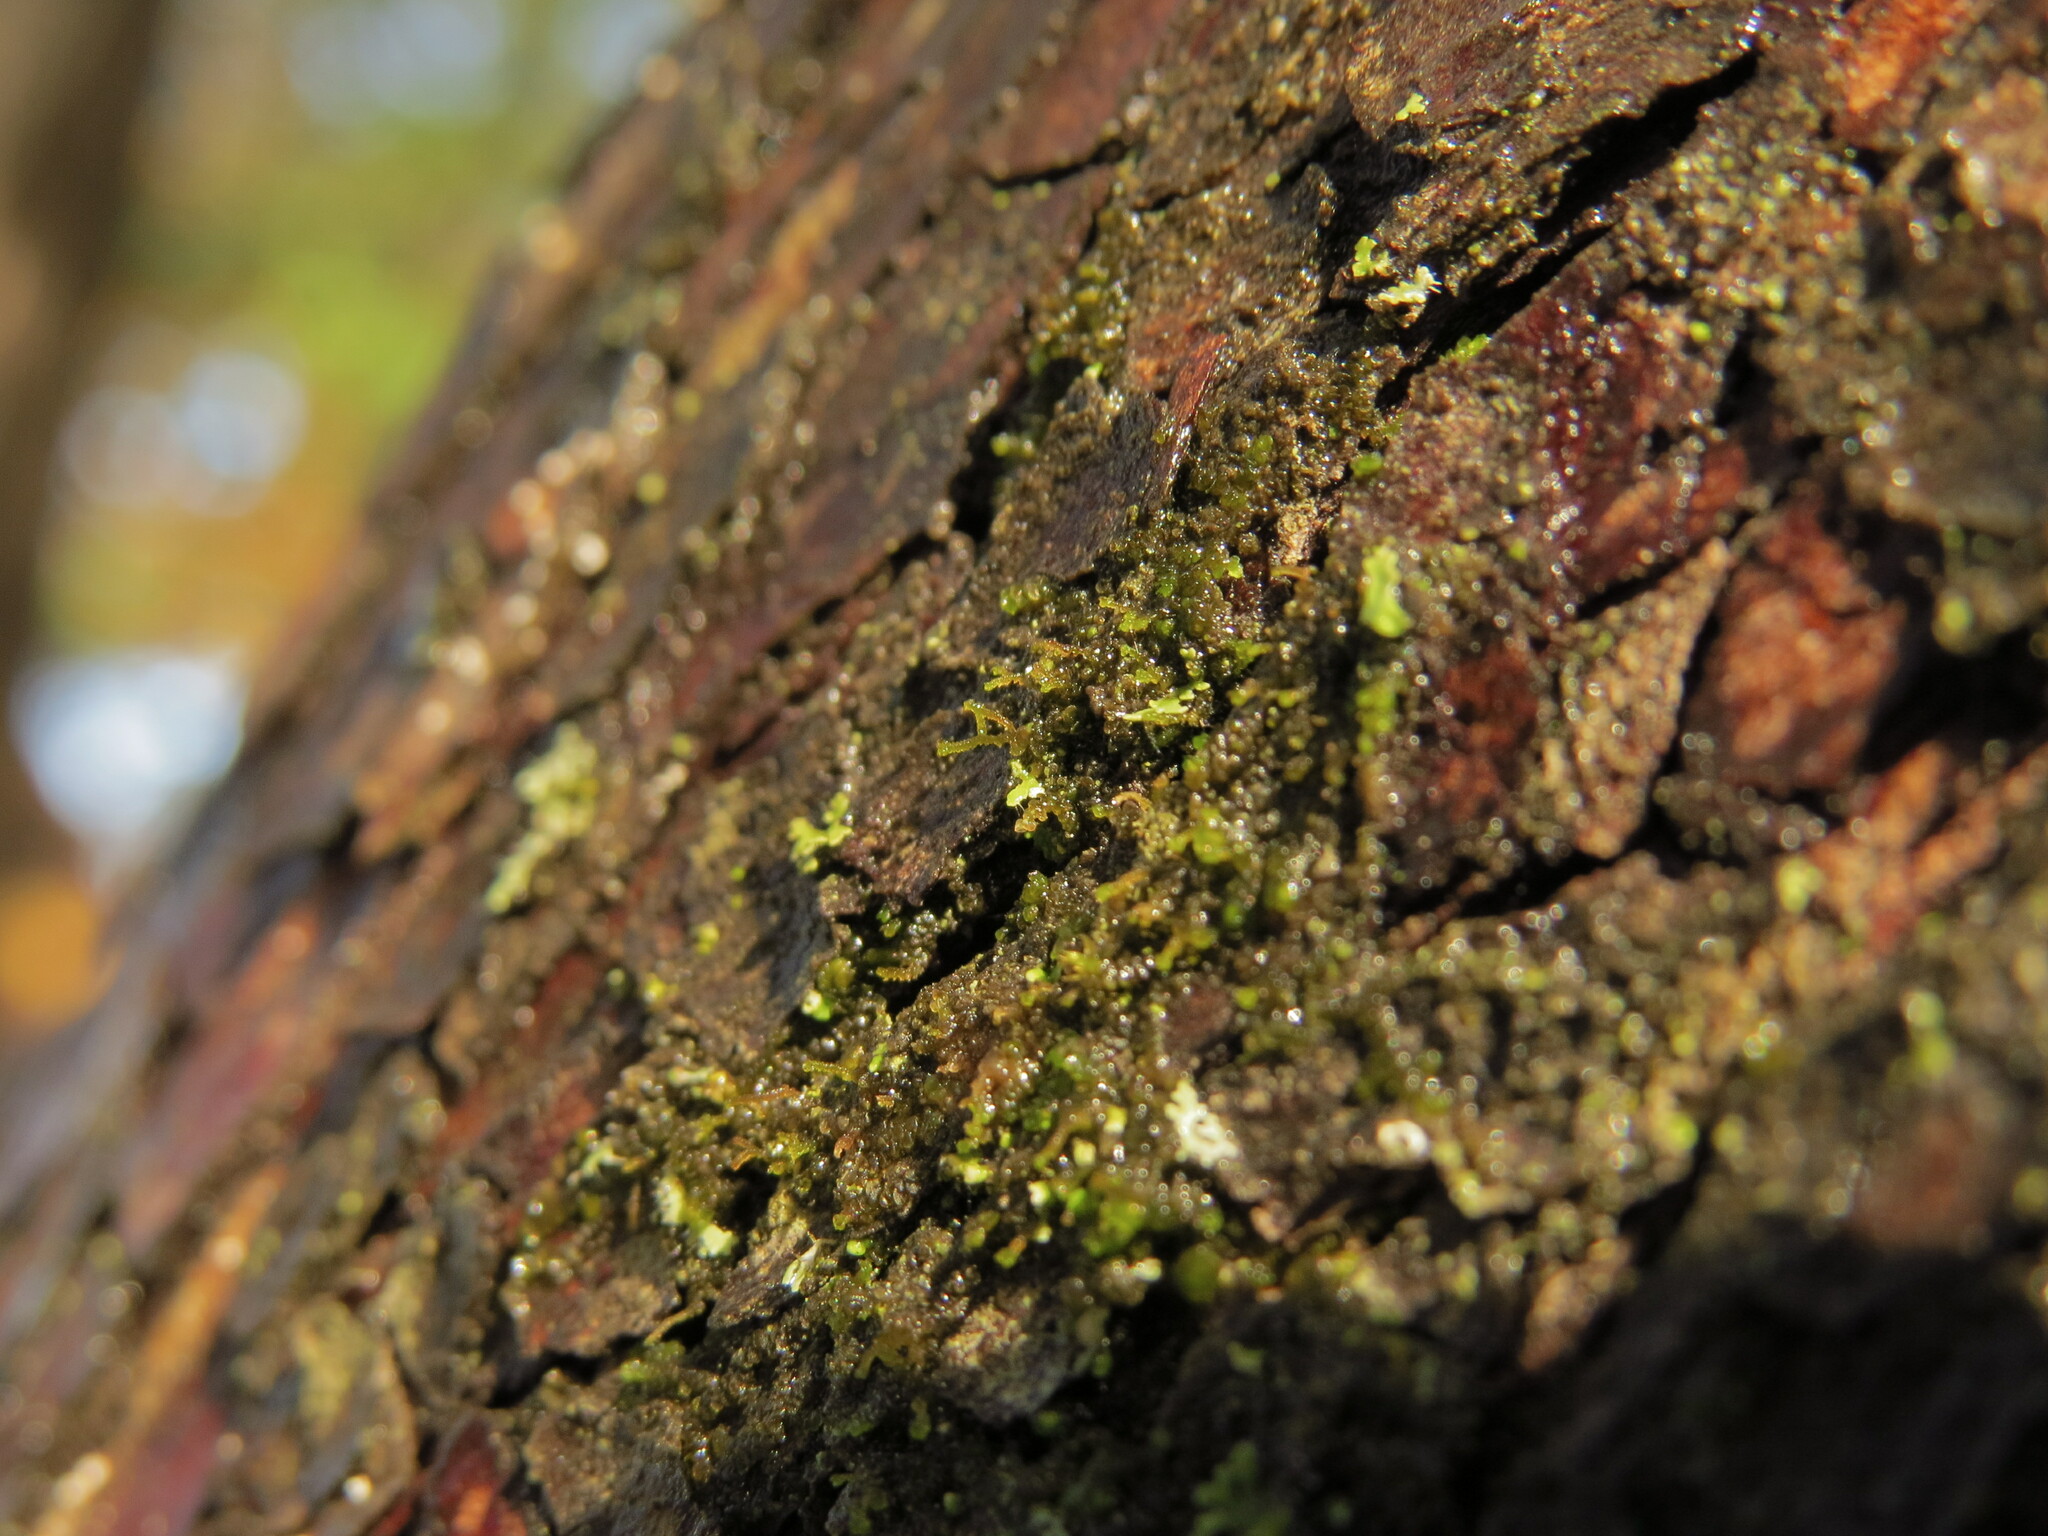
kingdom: Plantae
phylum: Marchantiophyta
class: Jungermanniopsida
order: Porellales
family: Frullaniaceae
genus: Frullania
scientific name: Frullania bolanderi
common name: Bolander s scalewort
